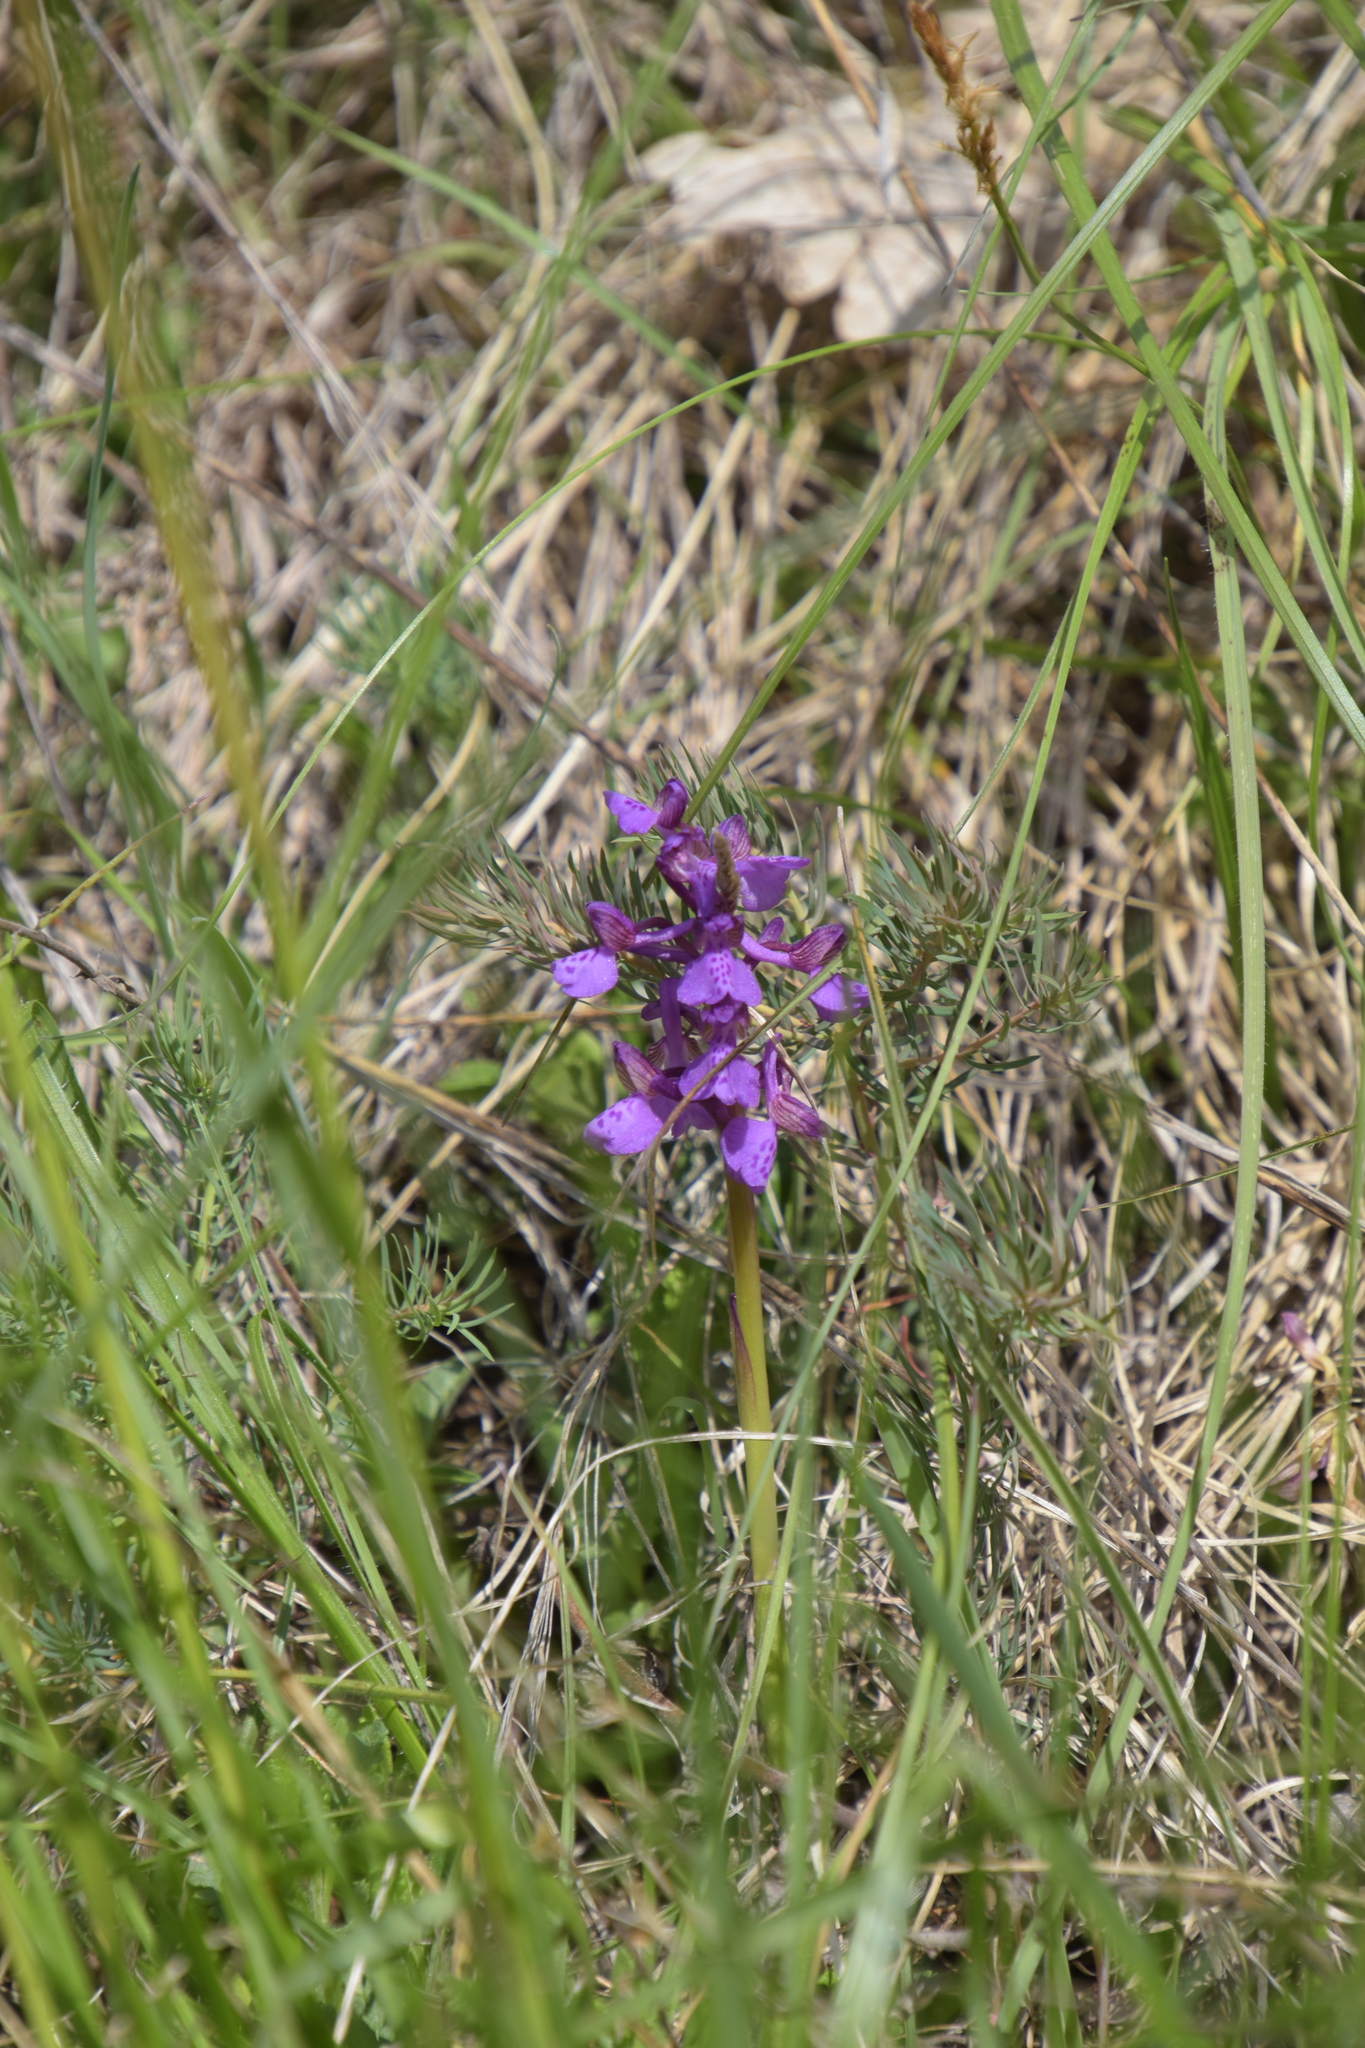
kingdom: Plantae
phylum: Tracheophyta
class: Liliopsida
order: Asparagales
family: Orchidaceae
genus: Anacamptis
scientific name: Anacamptis morio
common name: Green-winged orchid
